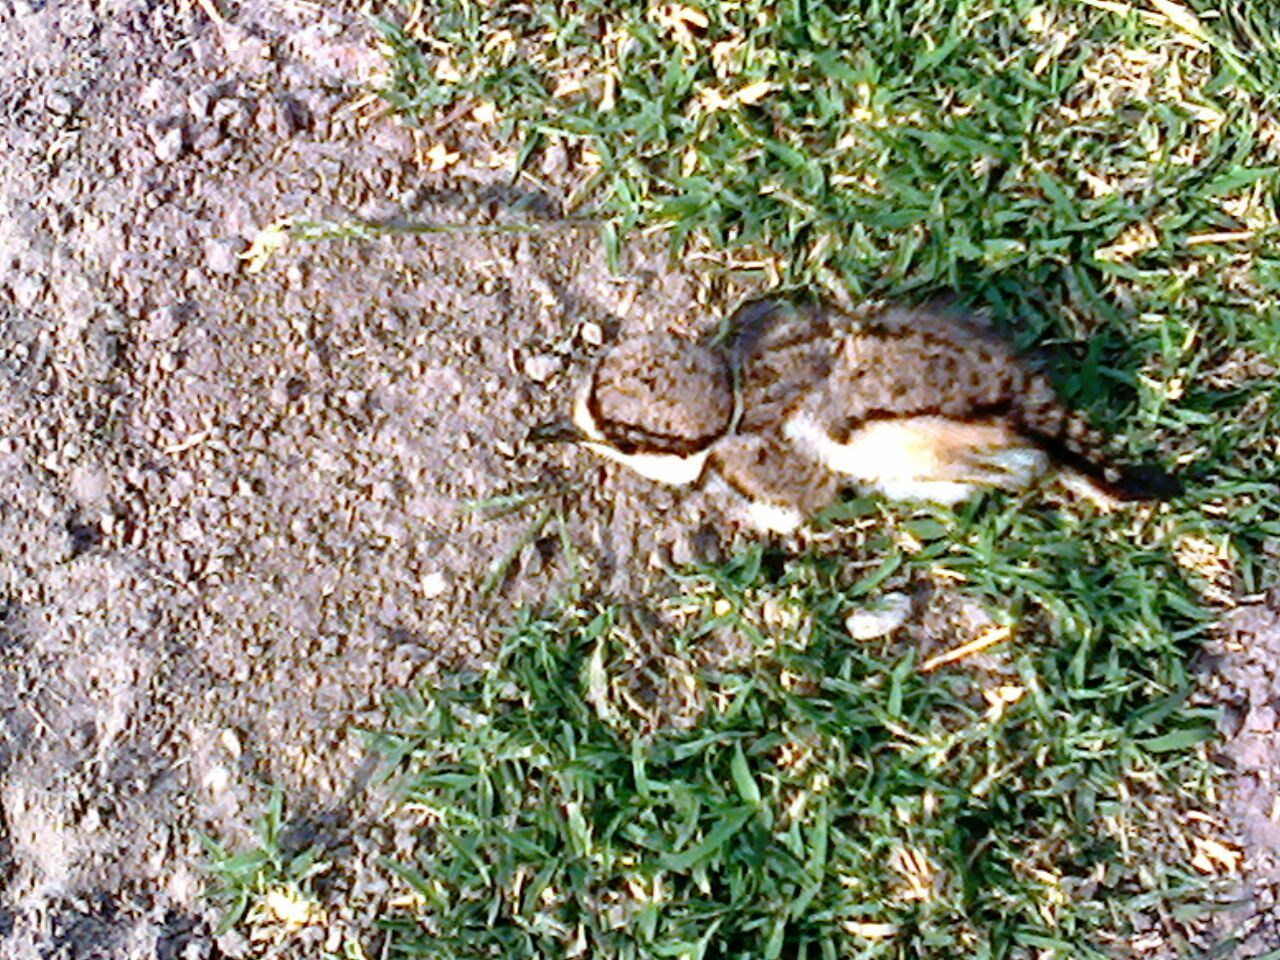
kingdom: Animalia
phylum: Chordata
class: Aves
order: Charadriiformes
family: Charadriidae
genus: Charadrius
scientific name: Charadrius vociferus
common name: Killdeer
